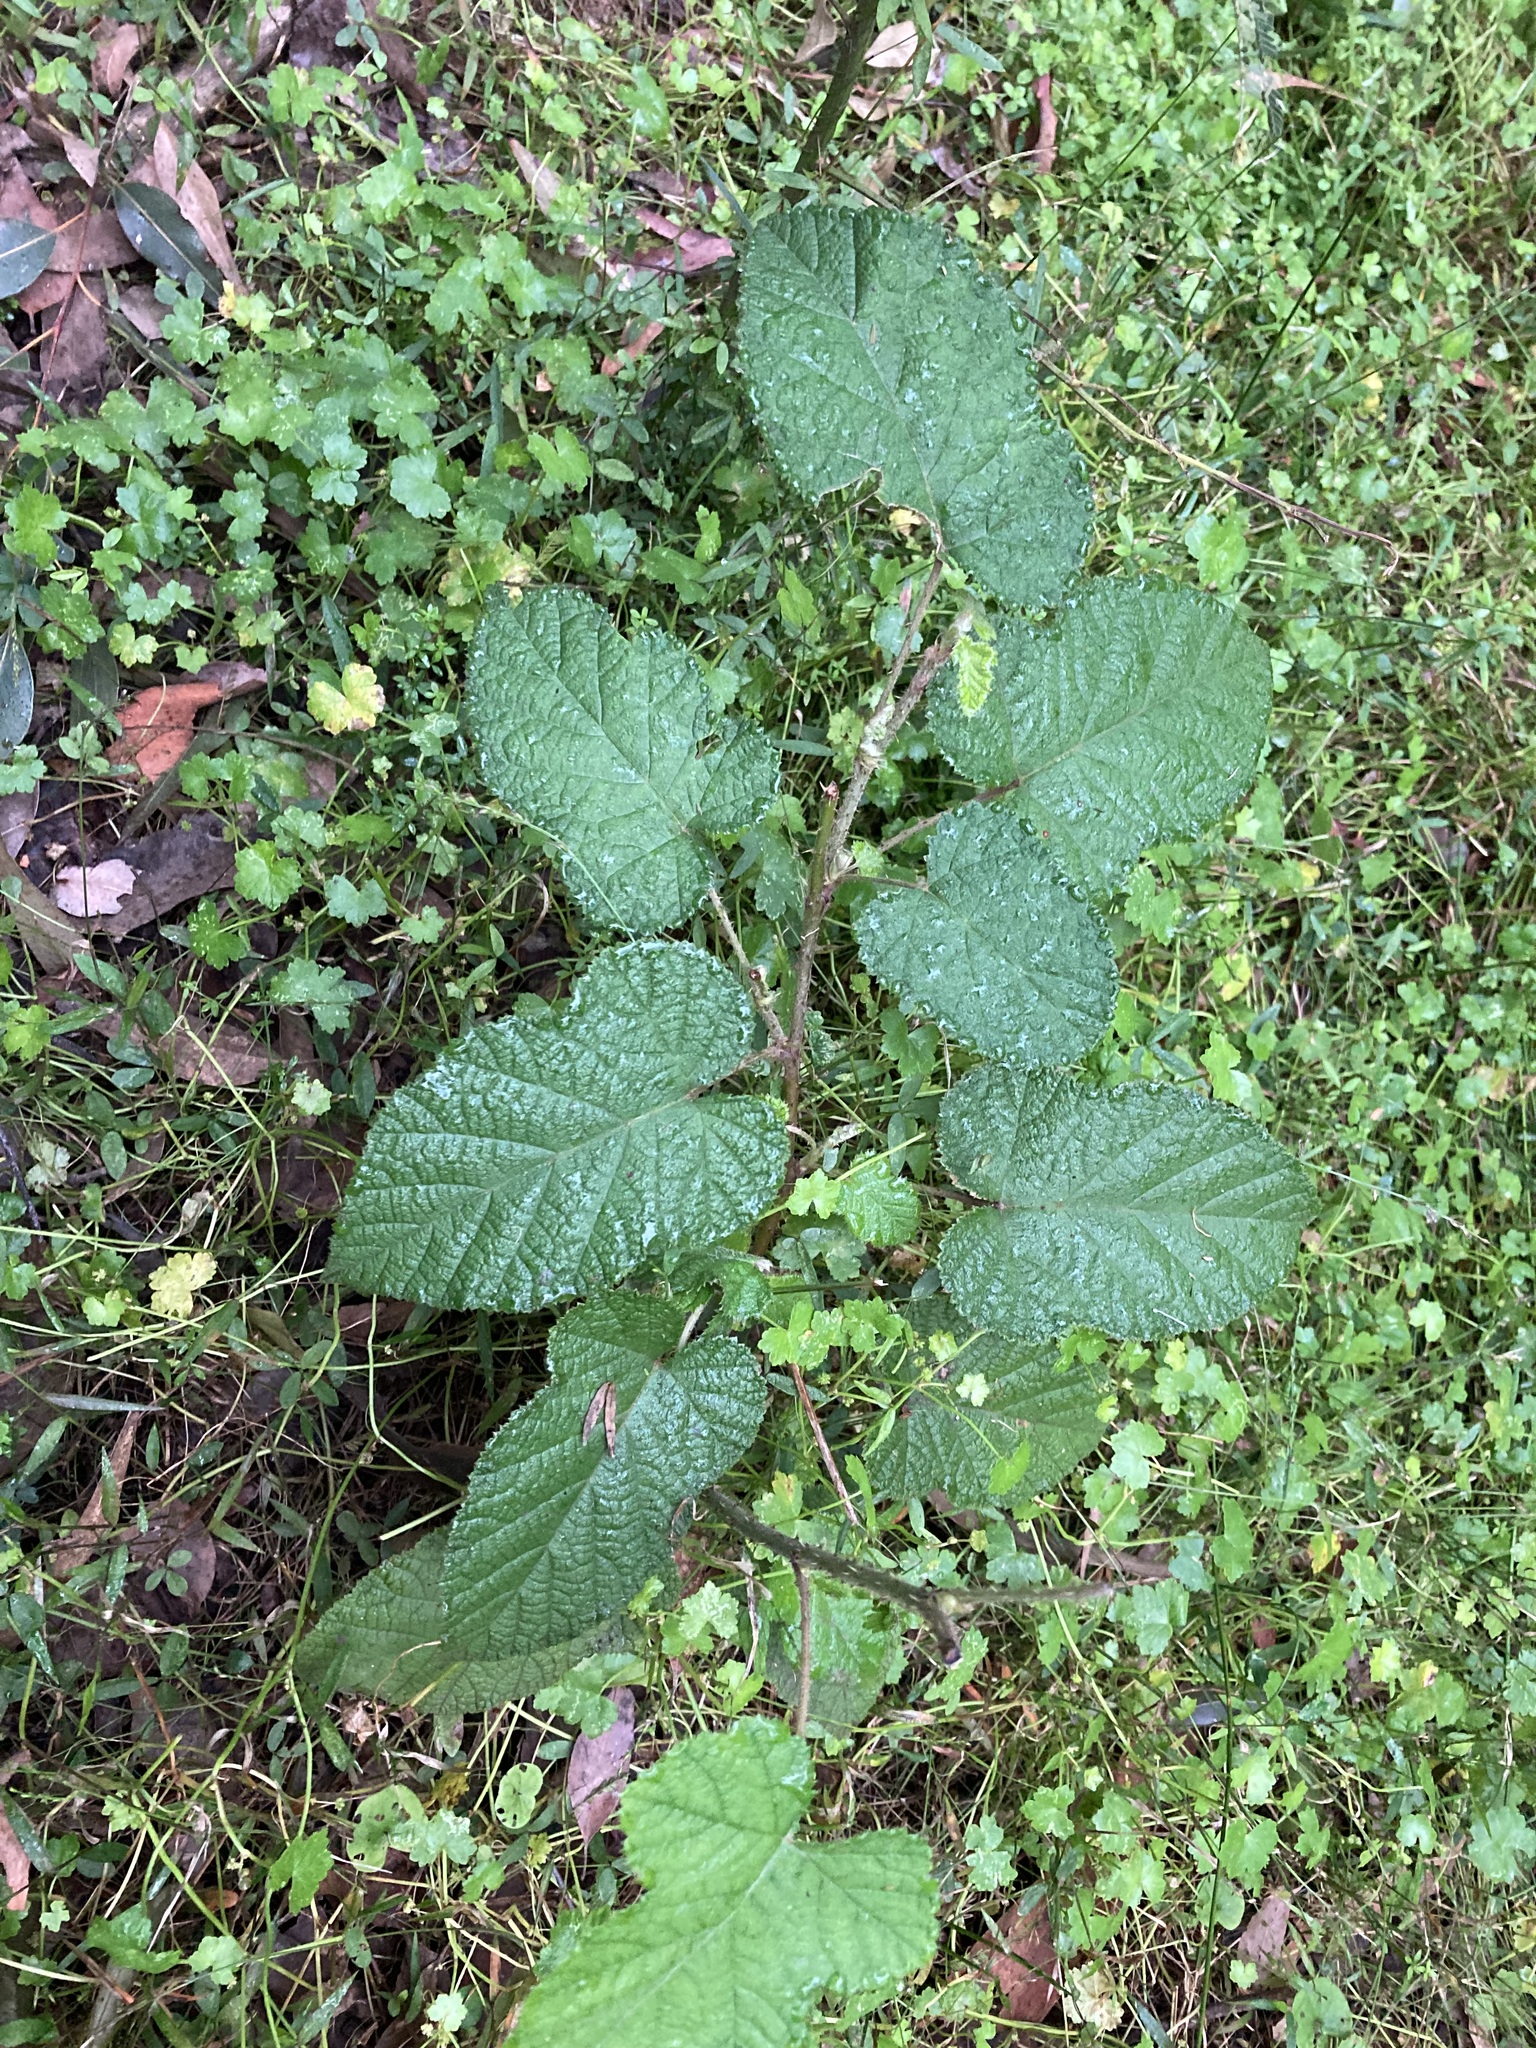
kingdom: Plantae
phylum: Tracheophyta
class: Magnoliopsida
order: Rosales
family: Rosaceae
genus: Rubus
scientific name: Rubus moluccanus
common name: Wild raspberry
